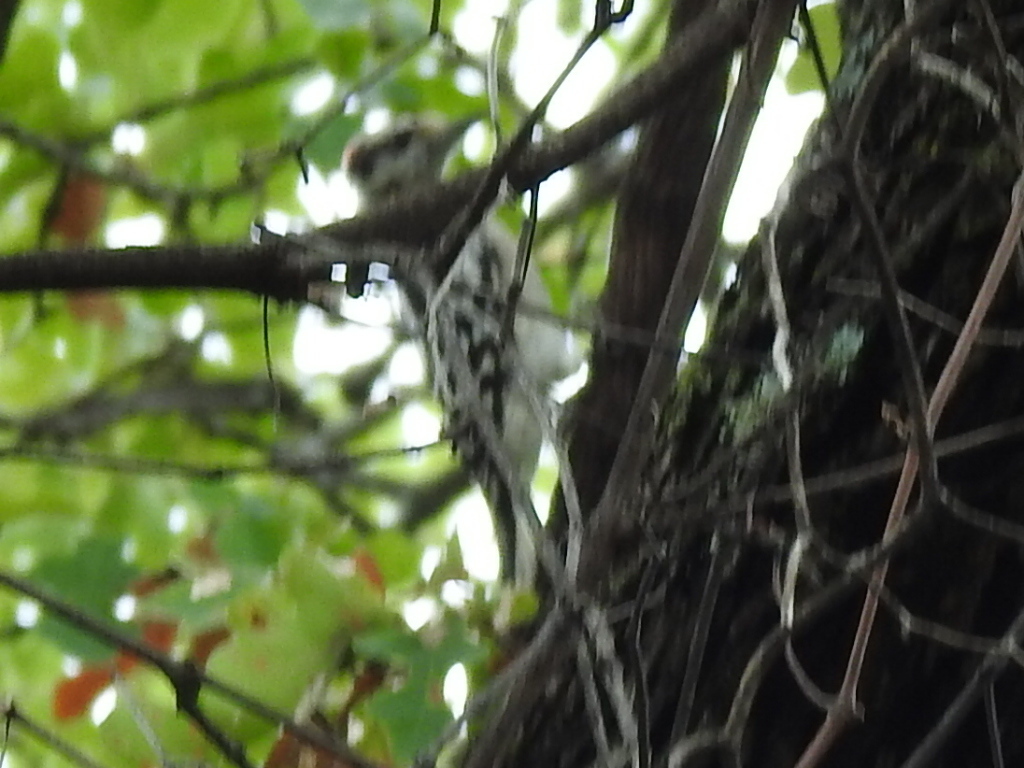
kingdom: Animalia
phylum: Chordata
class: Aves
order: Piciformes
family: Picidae
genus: Dryobates
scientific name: Dryobates pubescens
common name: Downy woodpecker
